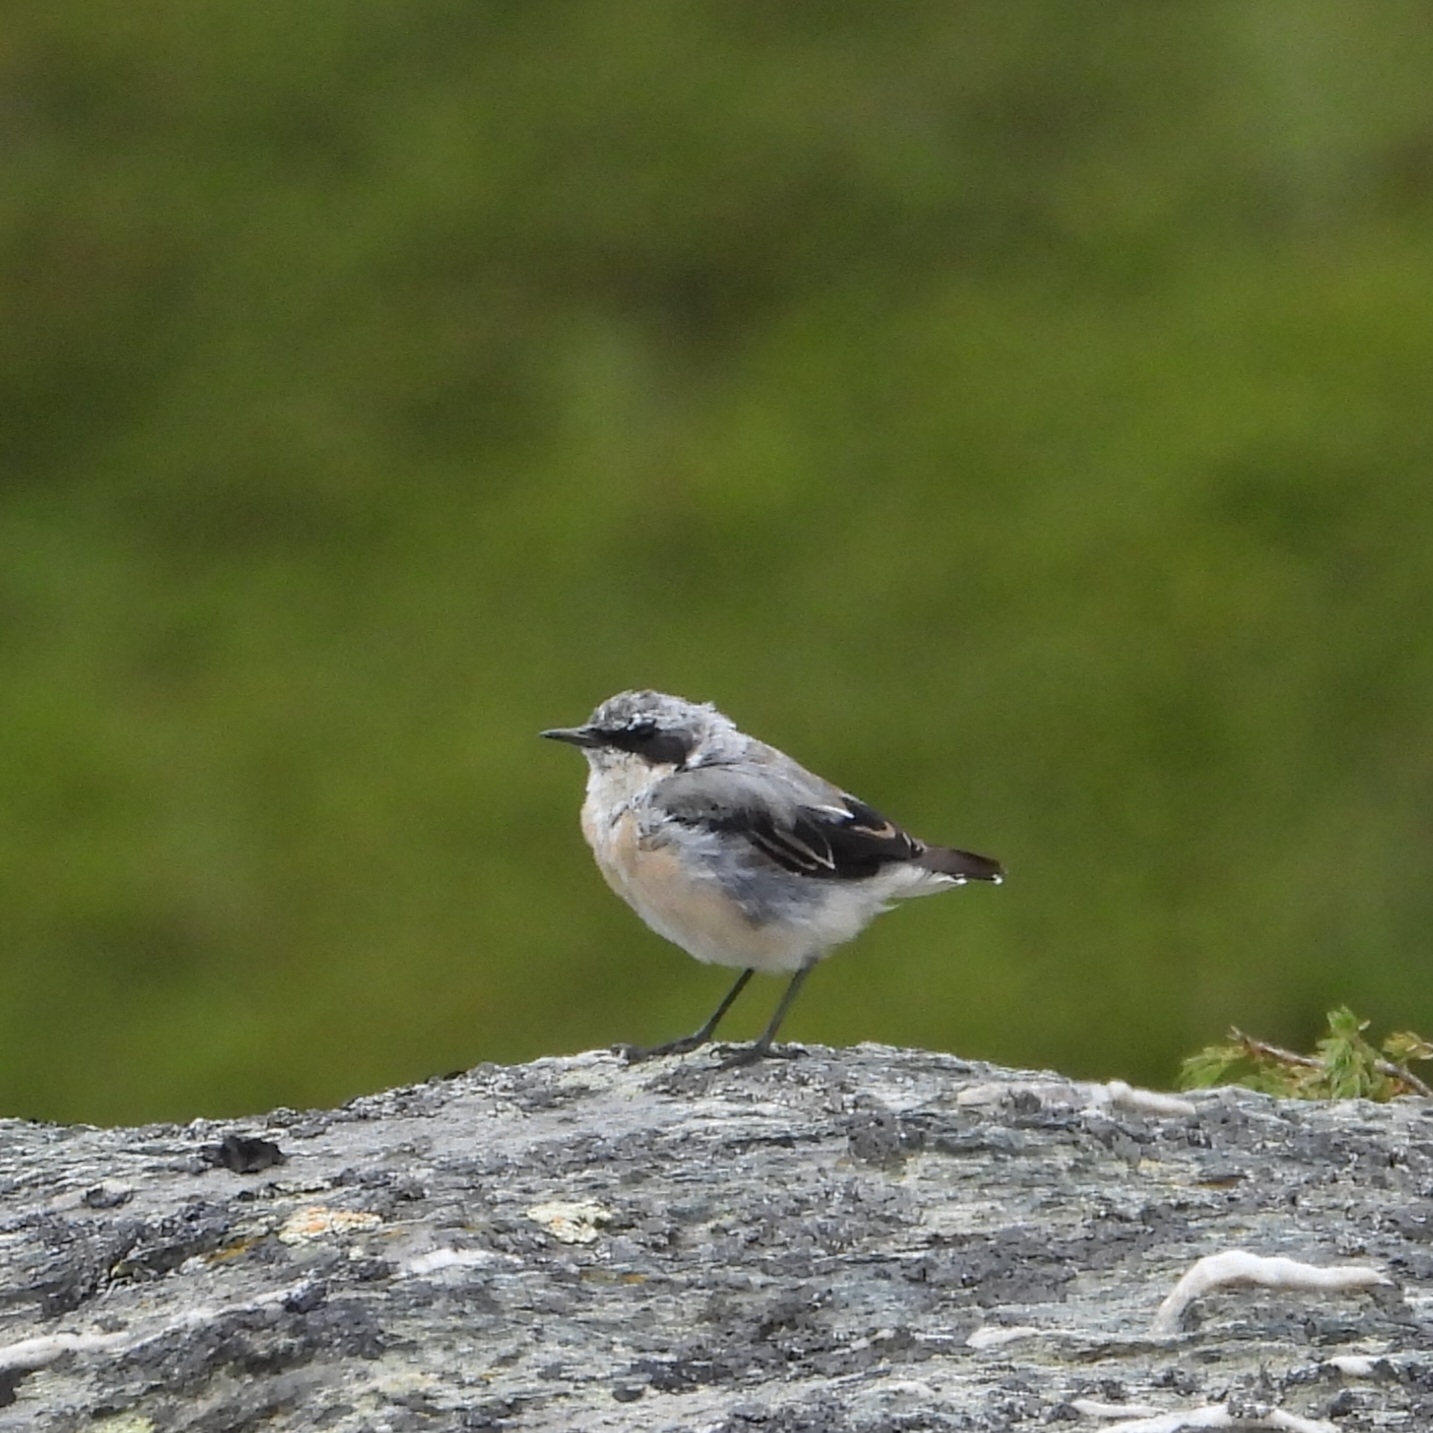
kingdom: Animalia
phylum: Chordata
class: Aves
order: Passeriformes
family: Muscicapidae
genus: Oenanthe
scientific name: Oenanthe oenanthe
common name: Northern wheatear
